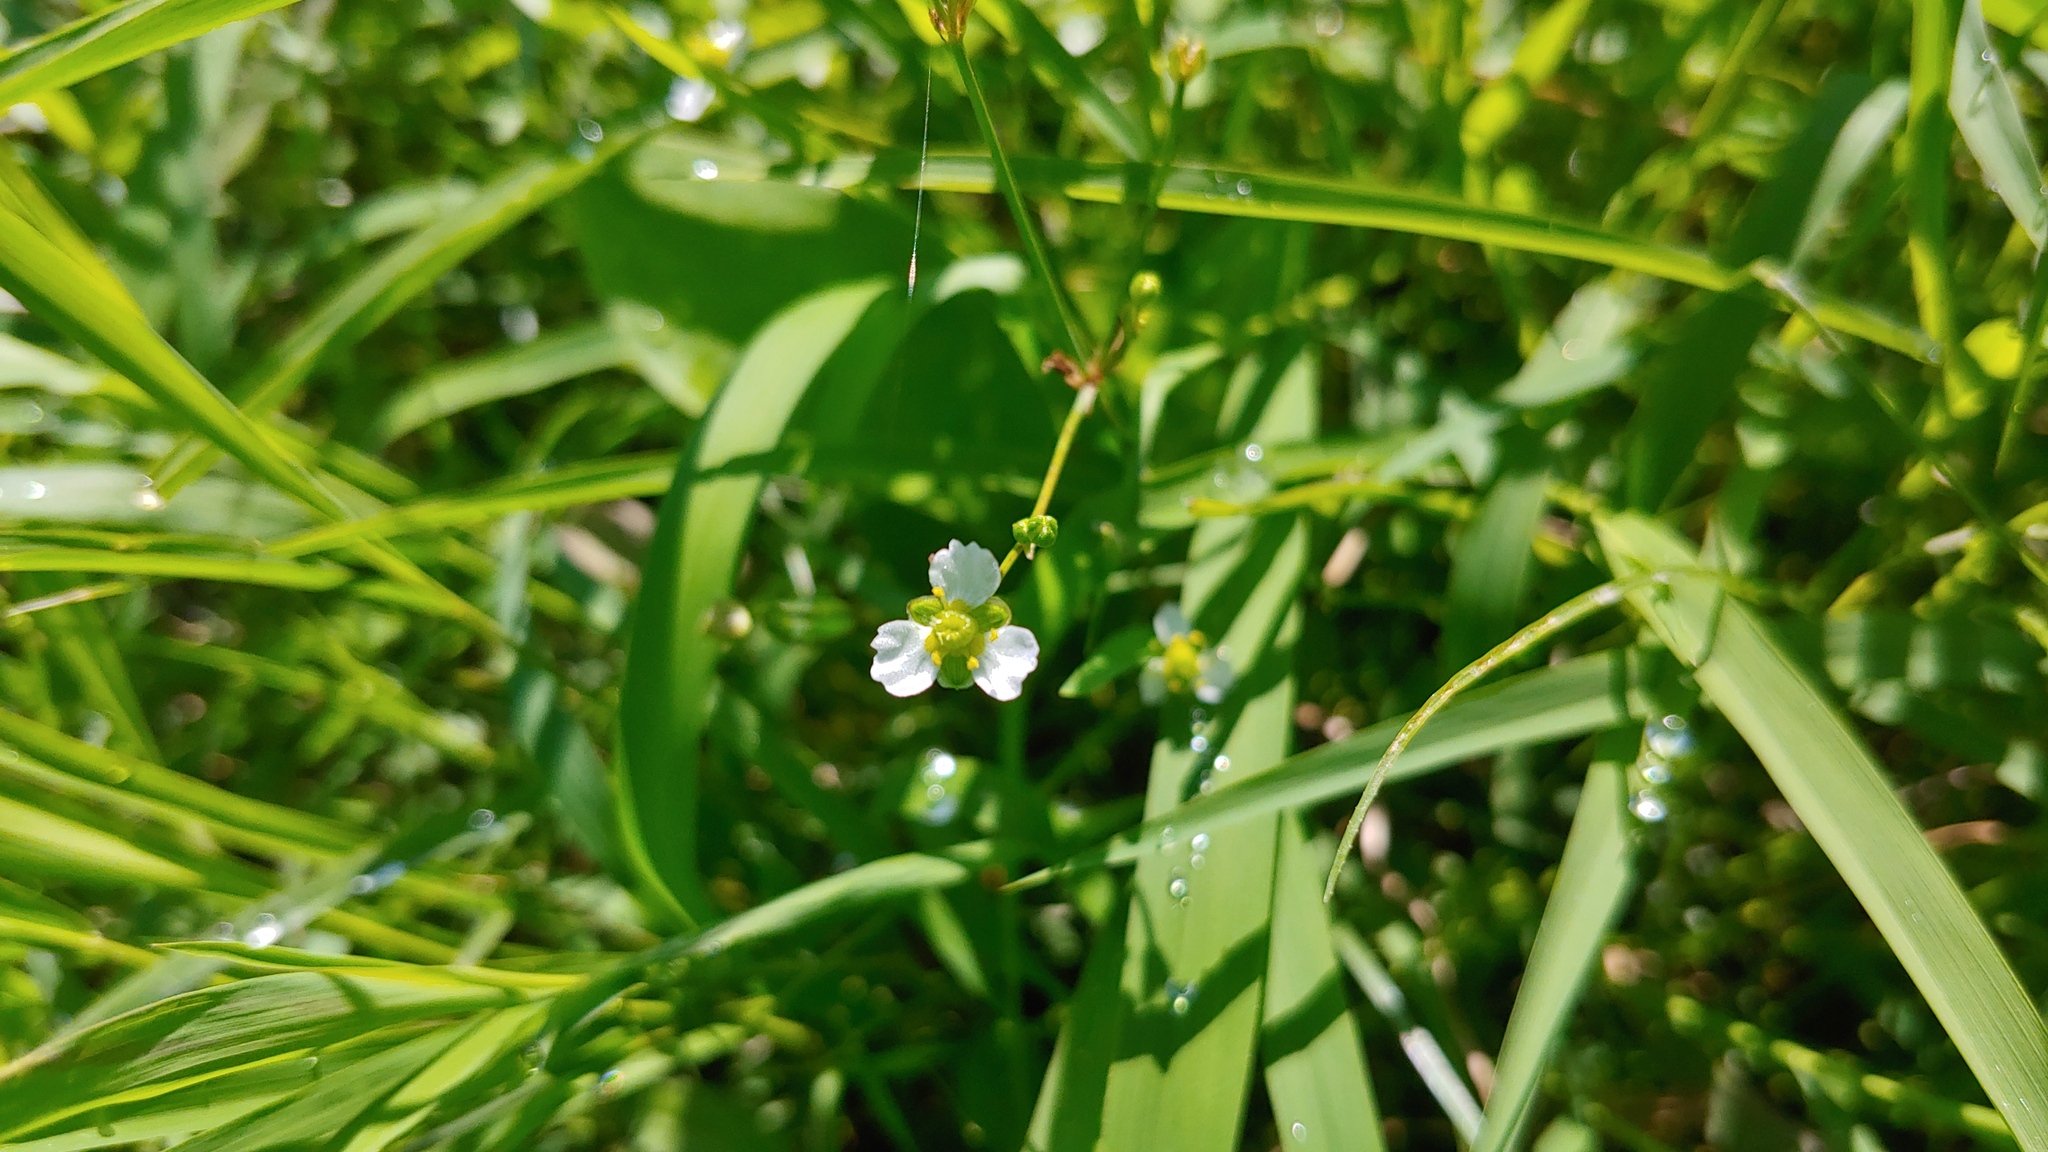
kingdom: Plantae
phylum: Tracheophyta
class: Liliopsida
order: Alismatales
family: Alismataceae
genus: Alisma
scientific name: Alisma triviale
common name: Northern water-plantain
